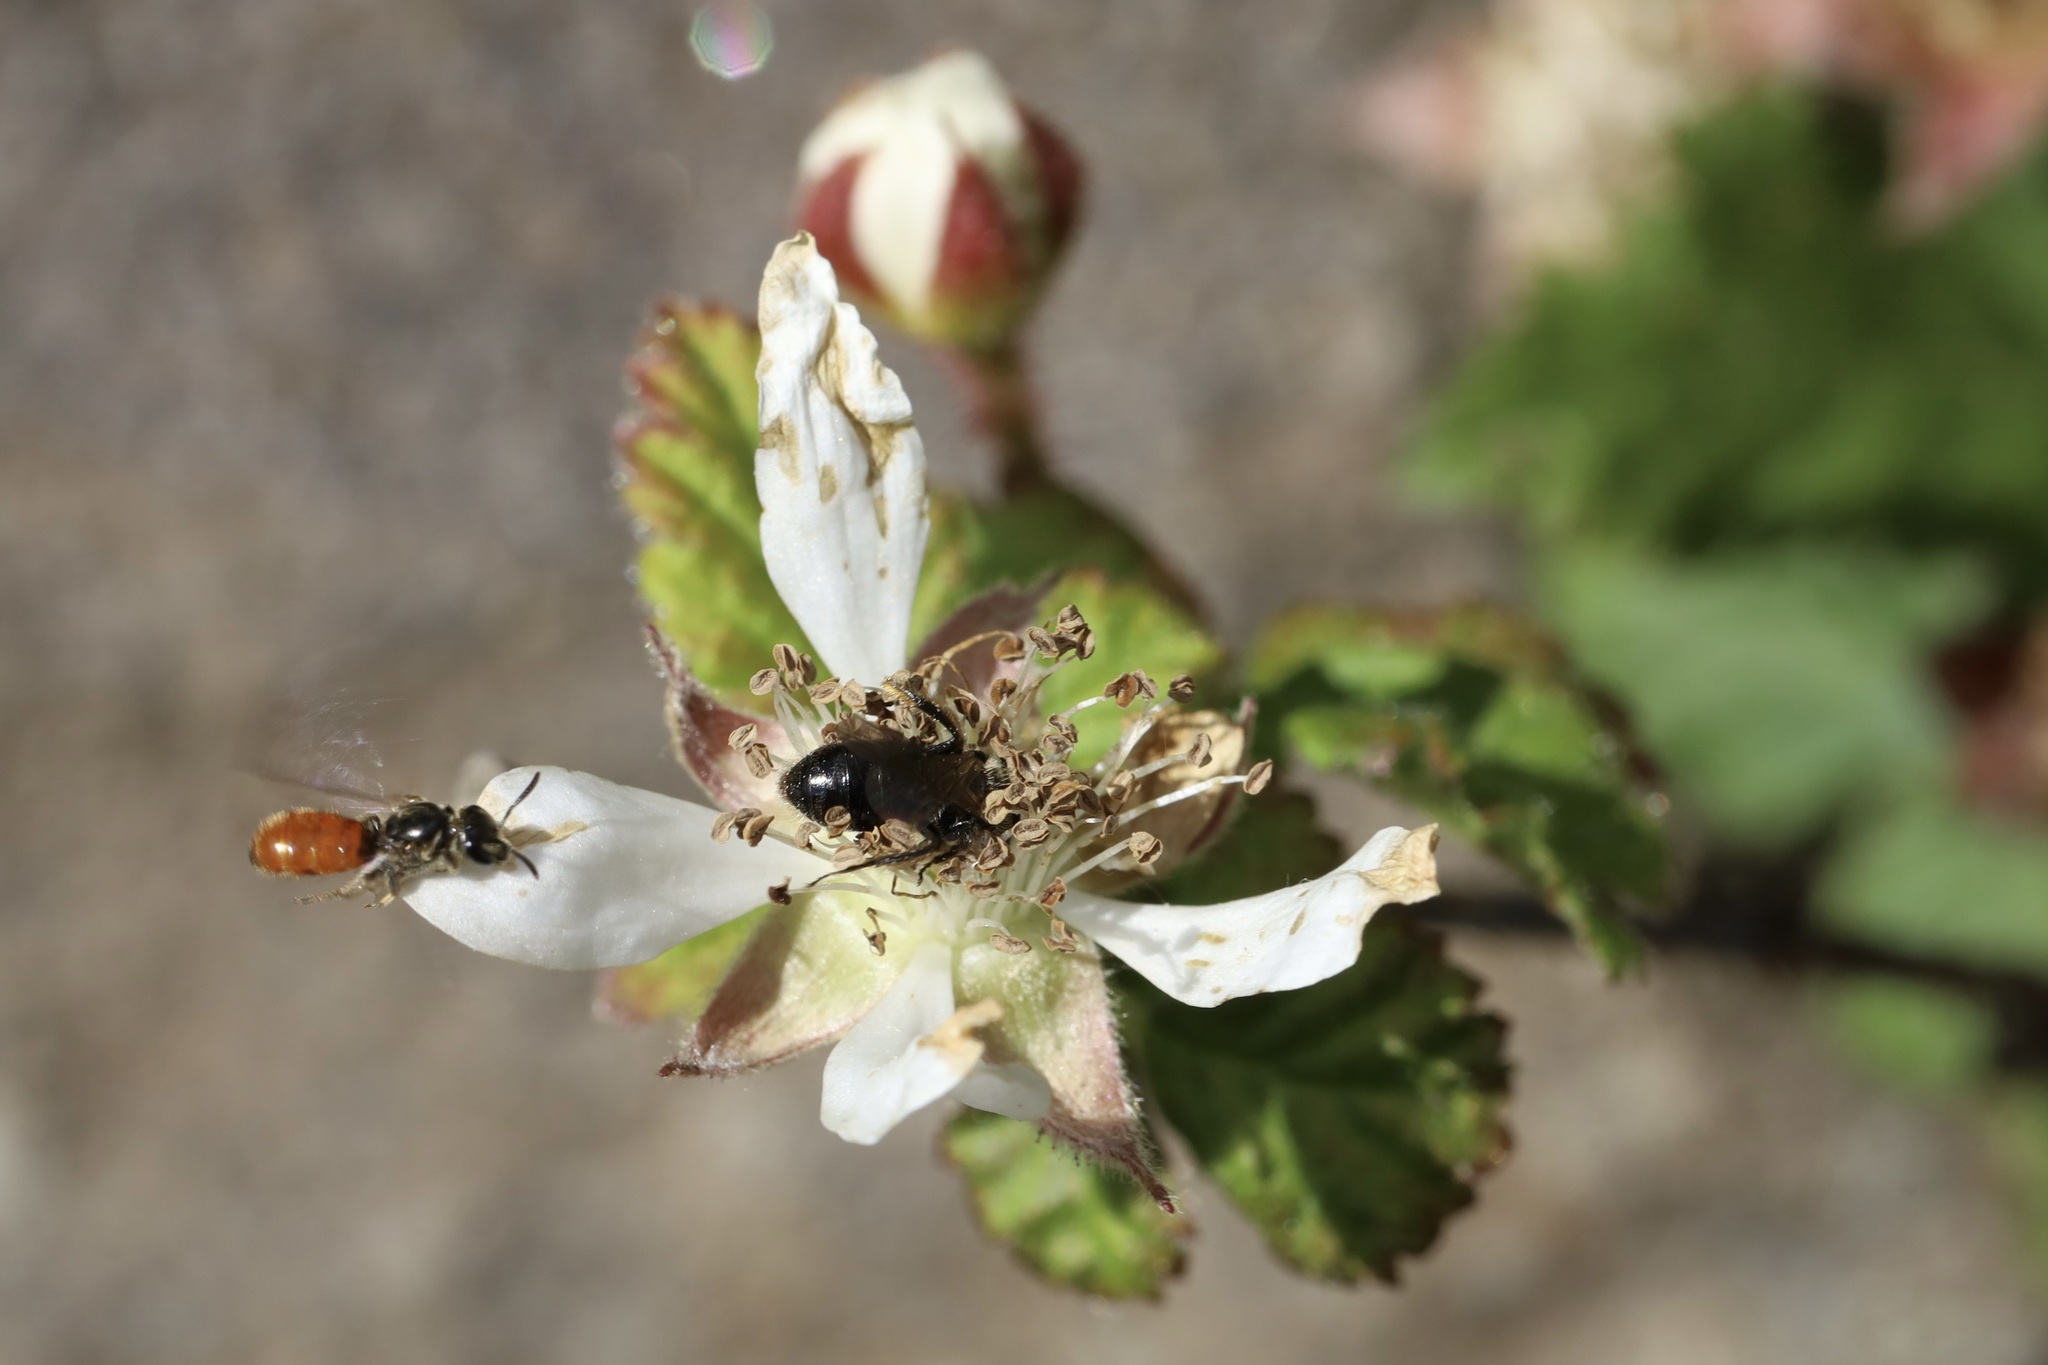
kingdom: Animalia
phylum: Arthropoda
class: Insecta
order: Hymenoptera
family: Halictidae
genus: Lasioglossum
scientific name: Lasioglossum ovaliceps
